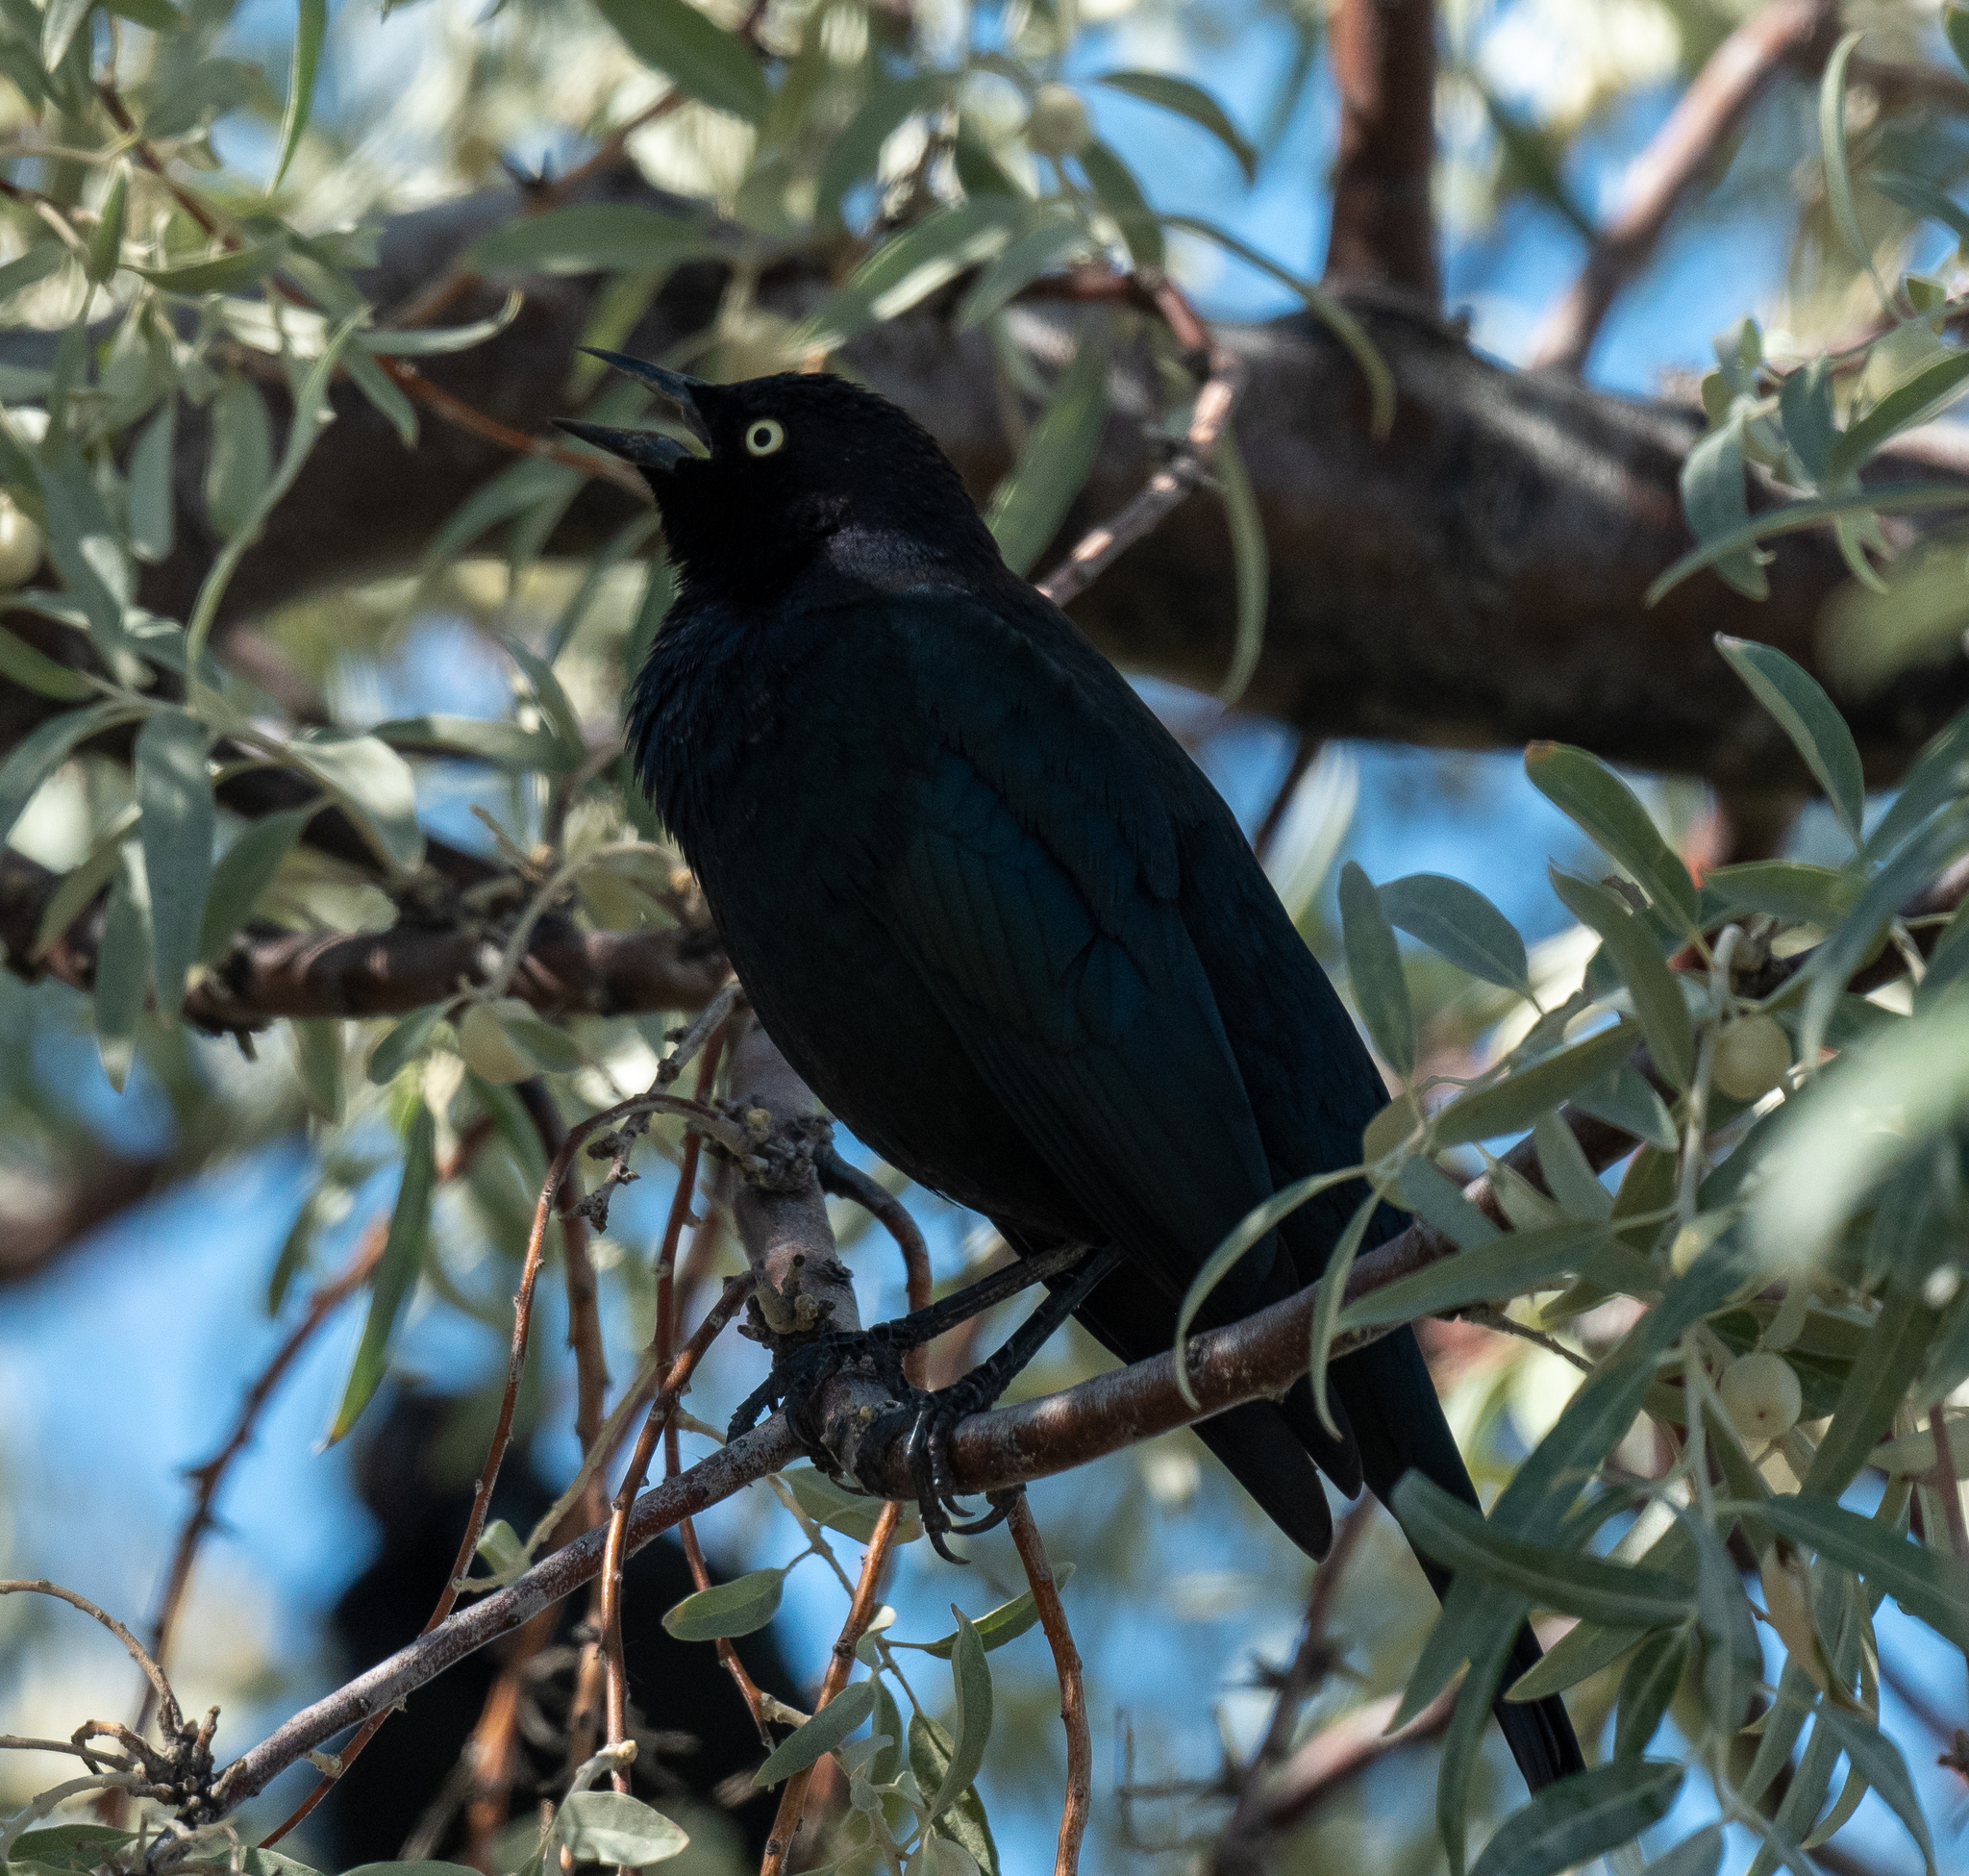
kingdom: Animalia
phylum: Chordata
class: Aves
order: Passeriformes
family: Icteridae
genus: Euphagus
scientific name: Euphagus cyanocephalus
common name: Brewer's blackbird
